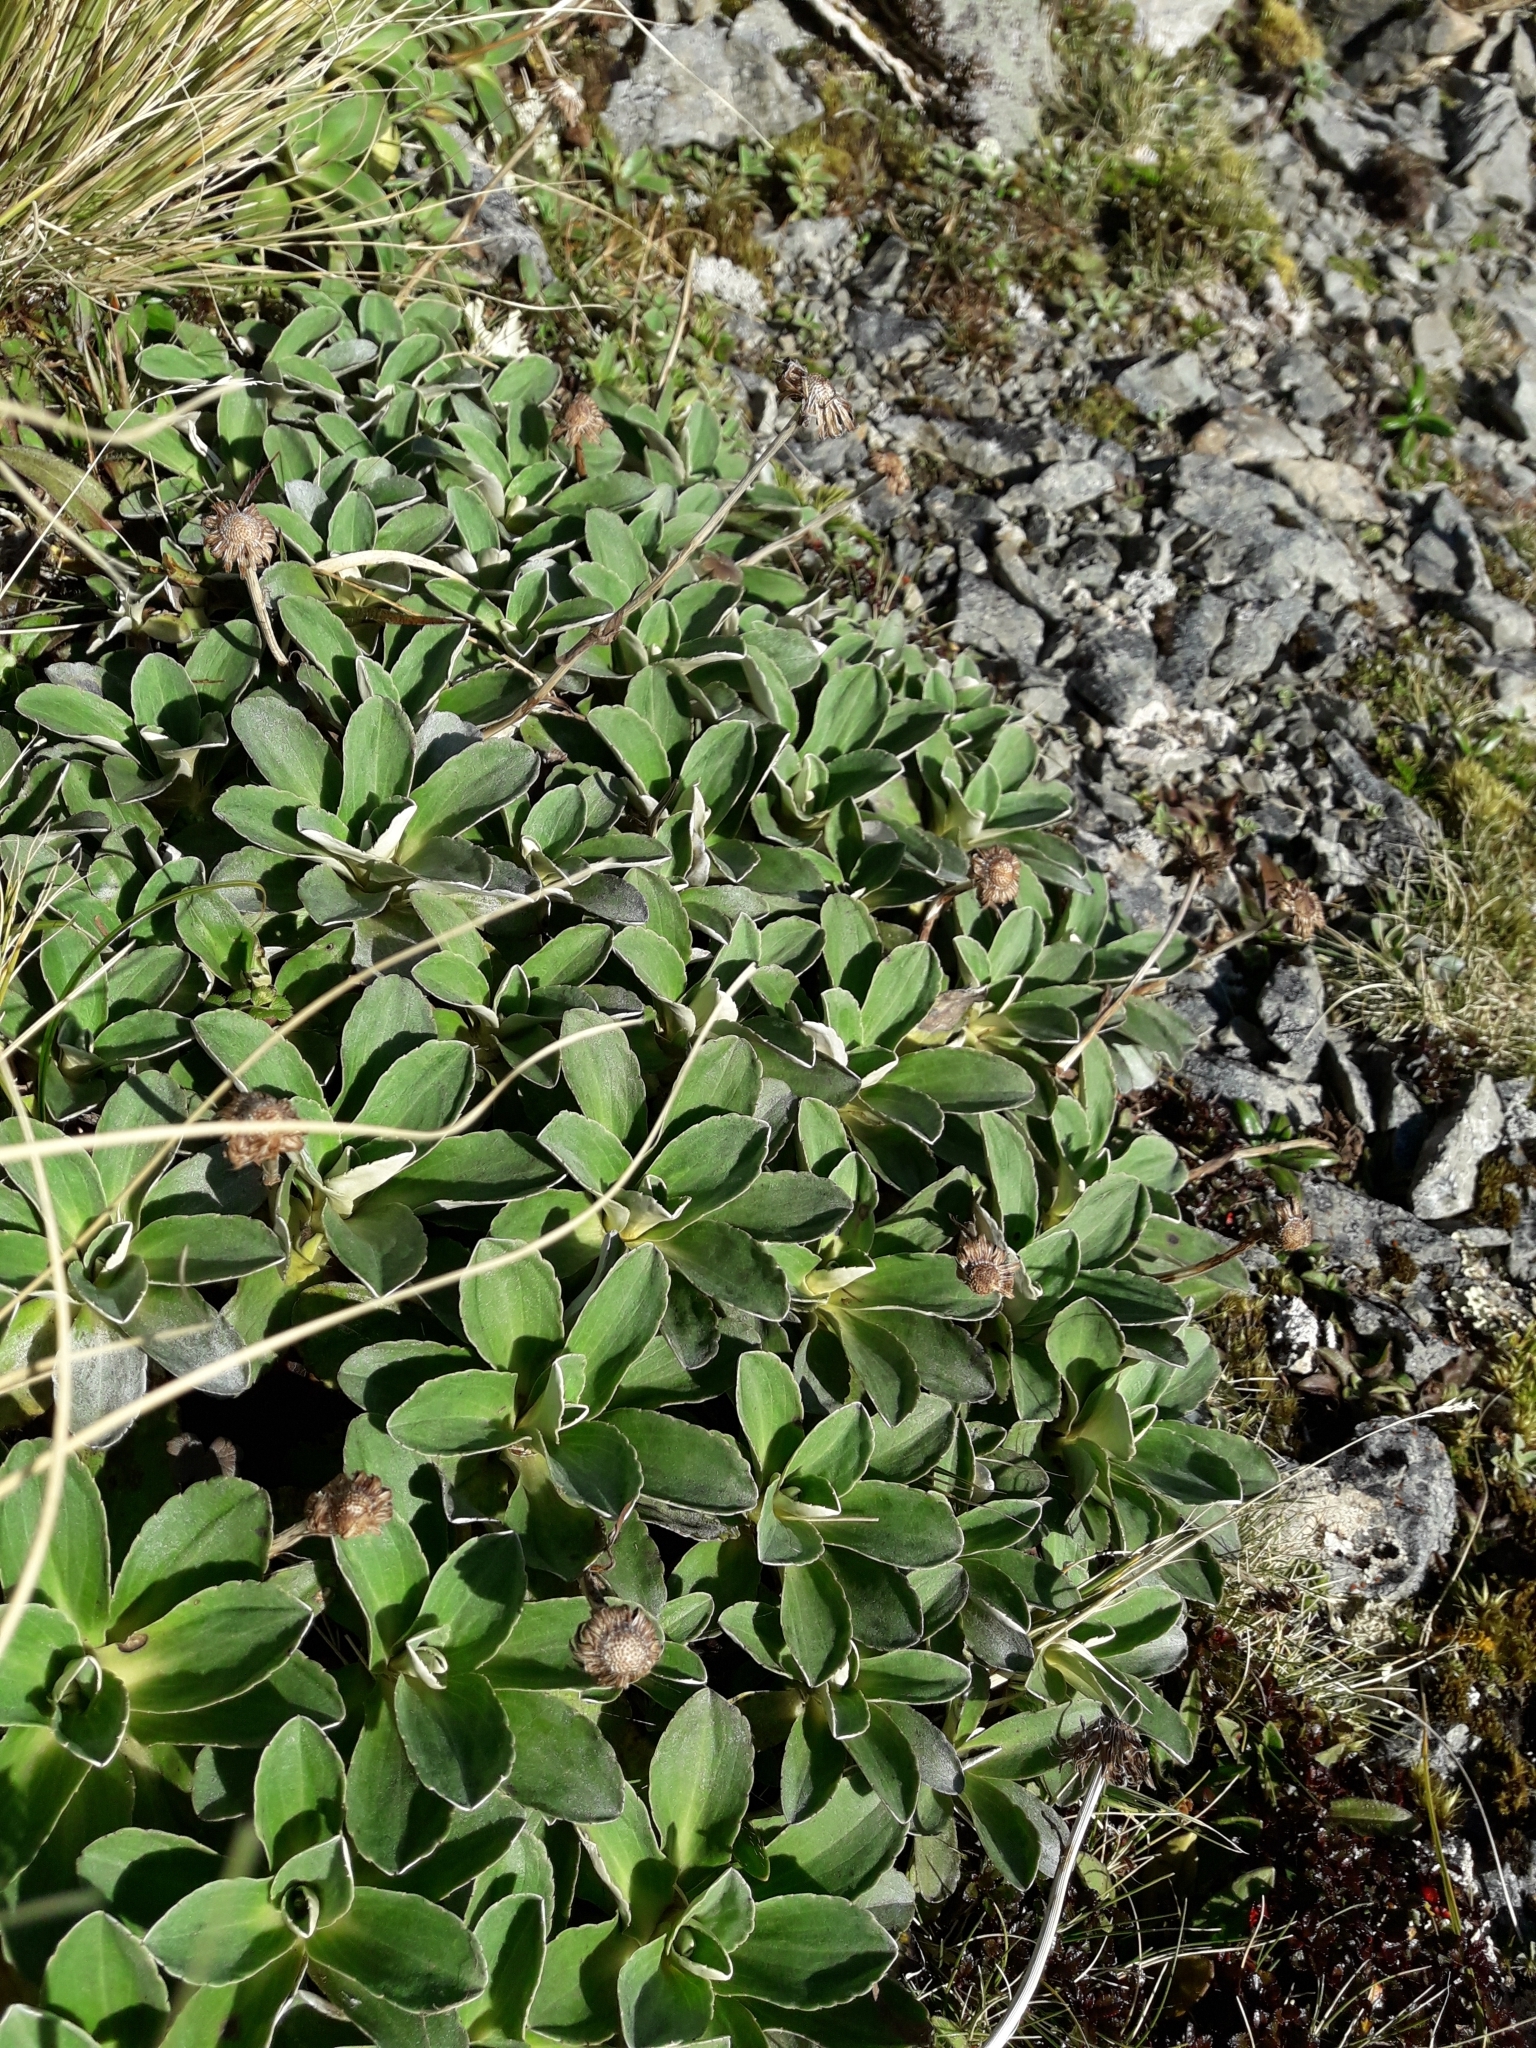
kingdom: Plantae
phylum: Tracheophyta
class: Magnoliopsida
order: Asterales
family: Asteraceae
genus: Celmisia
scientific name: Celmisia hieraciifolia
